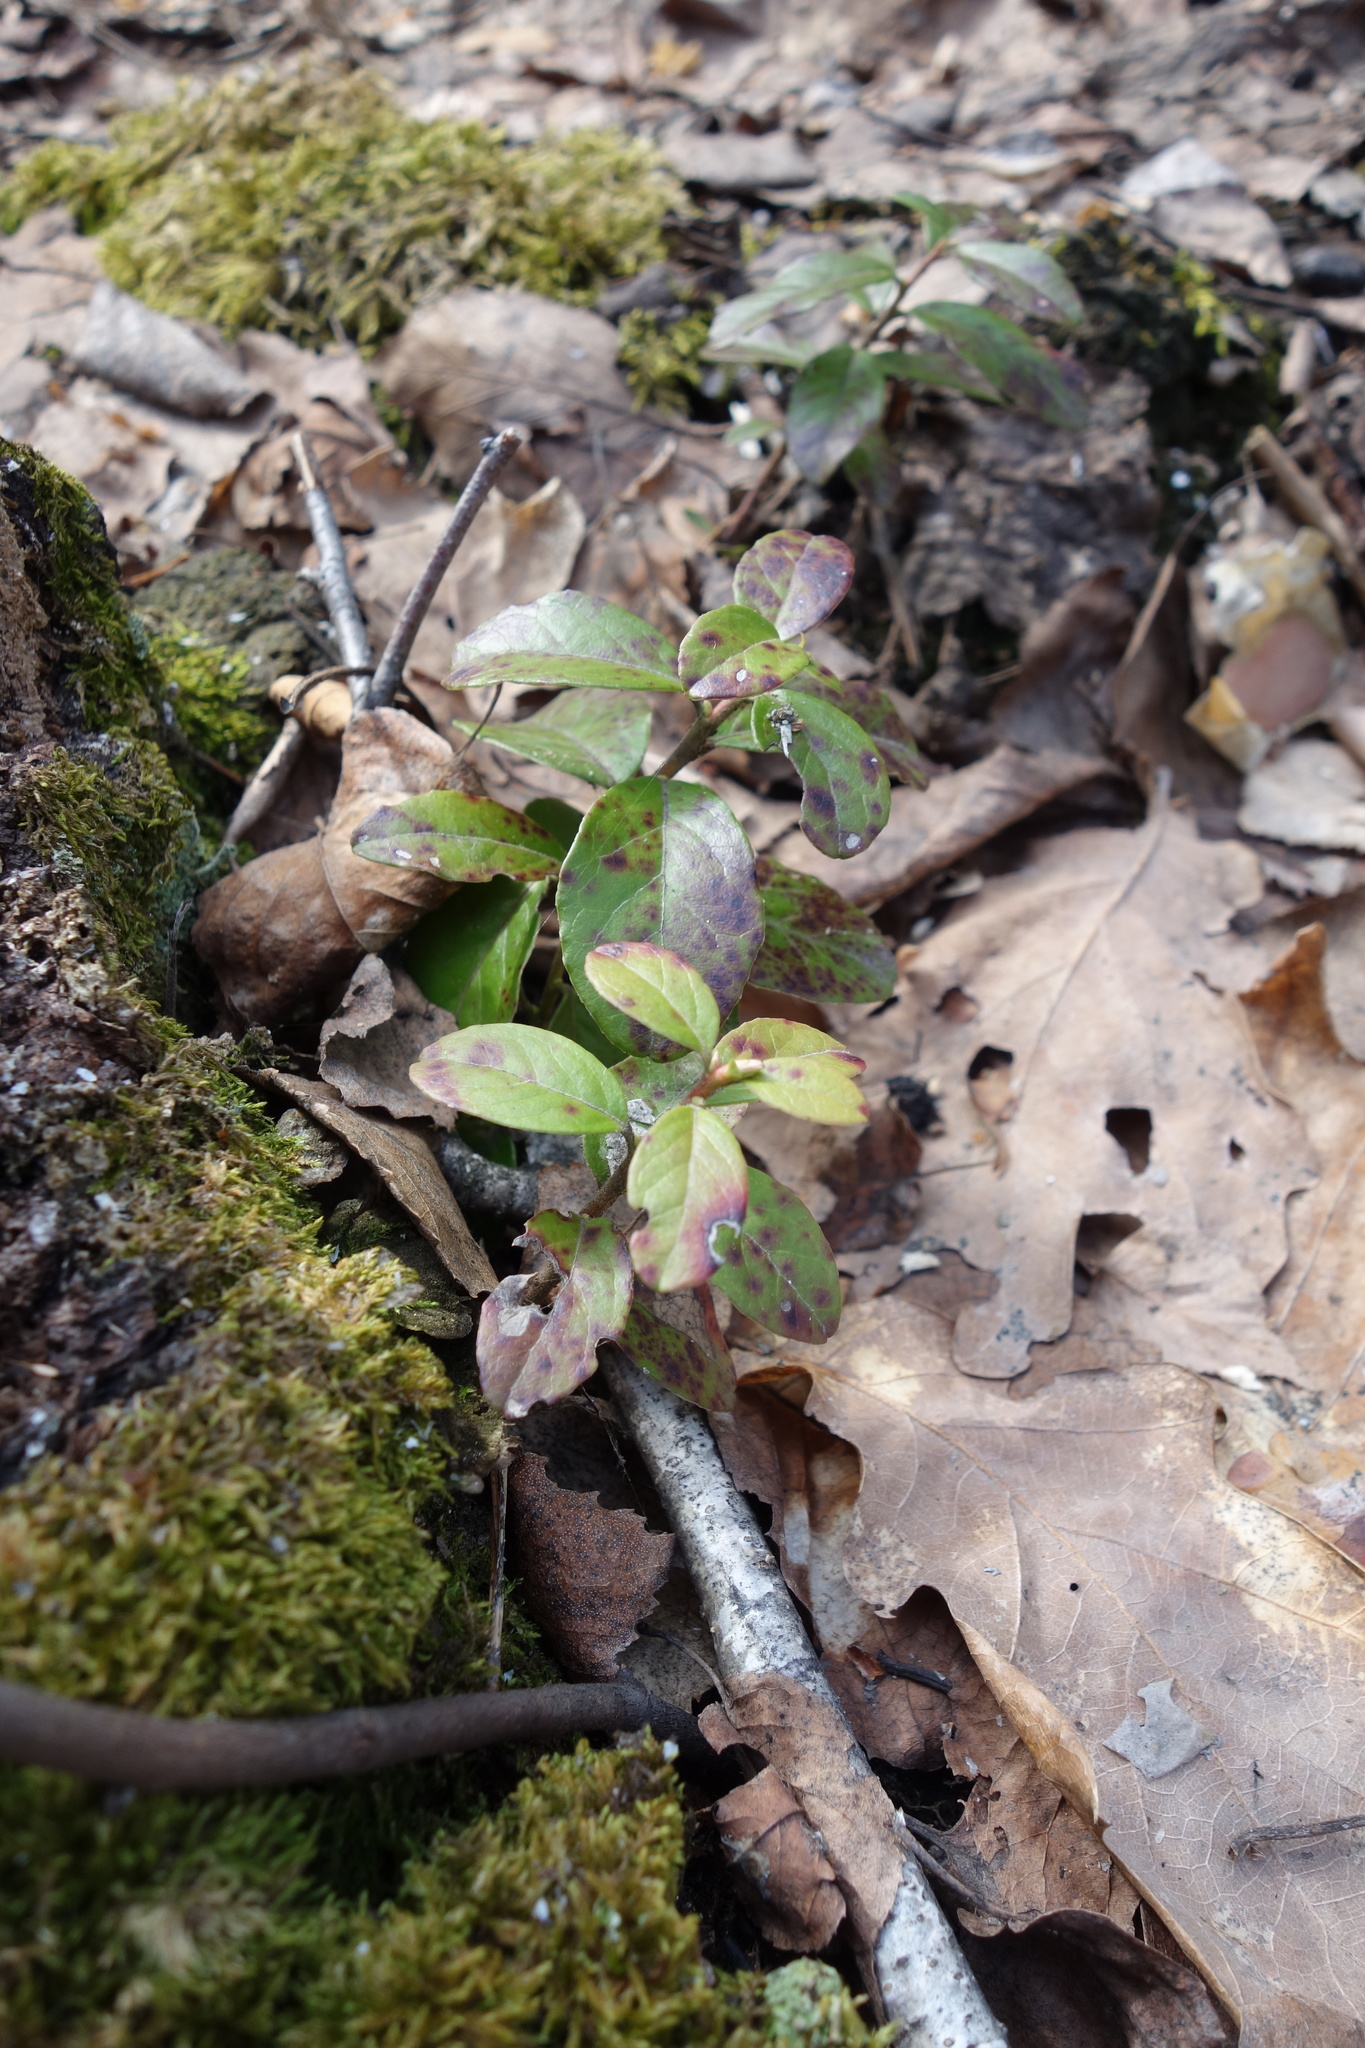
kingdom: Plantae
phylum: Tracheophyta
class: Magnoliopsida
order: Ericales
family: Ericaceae
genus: Vaccinium
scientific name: Vaccinium vitis-idaea
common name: Cowberry
